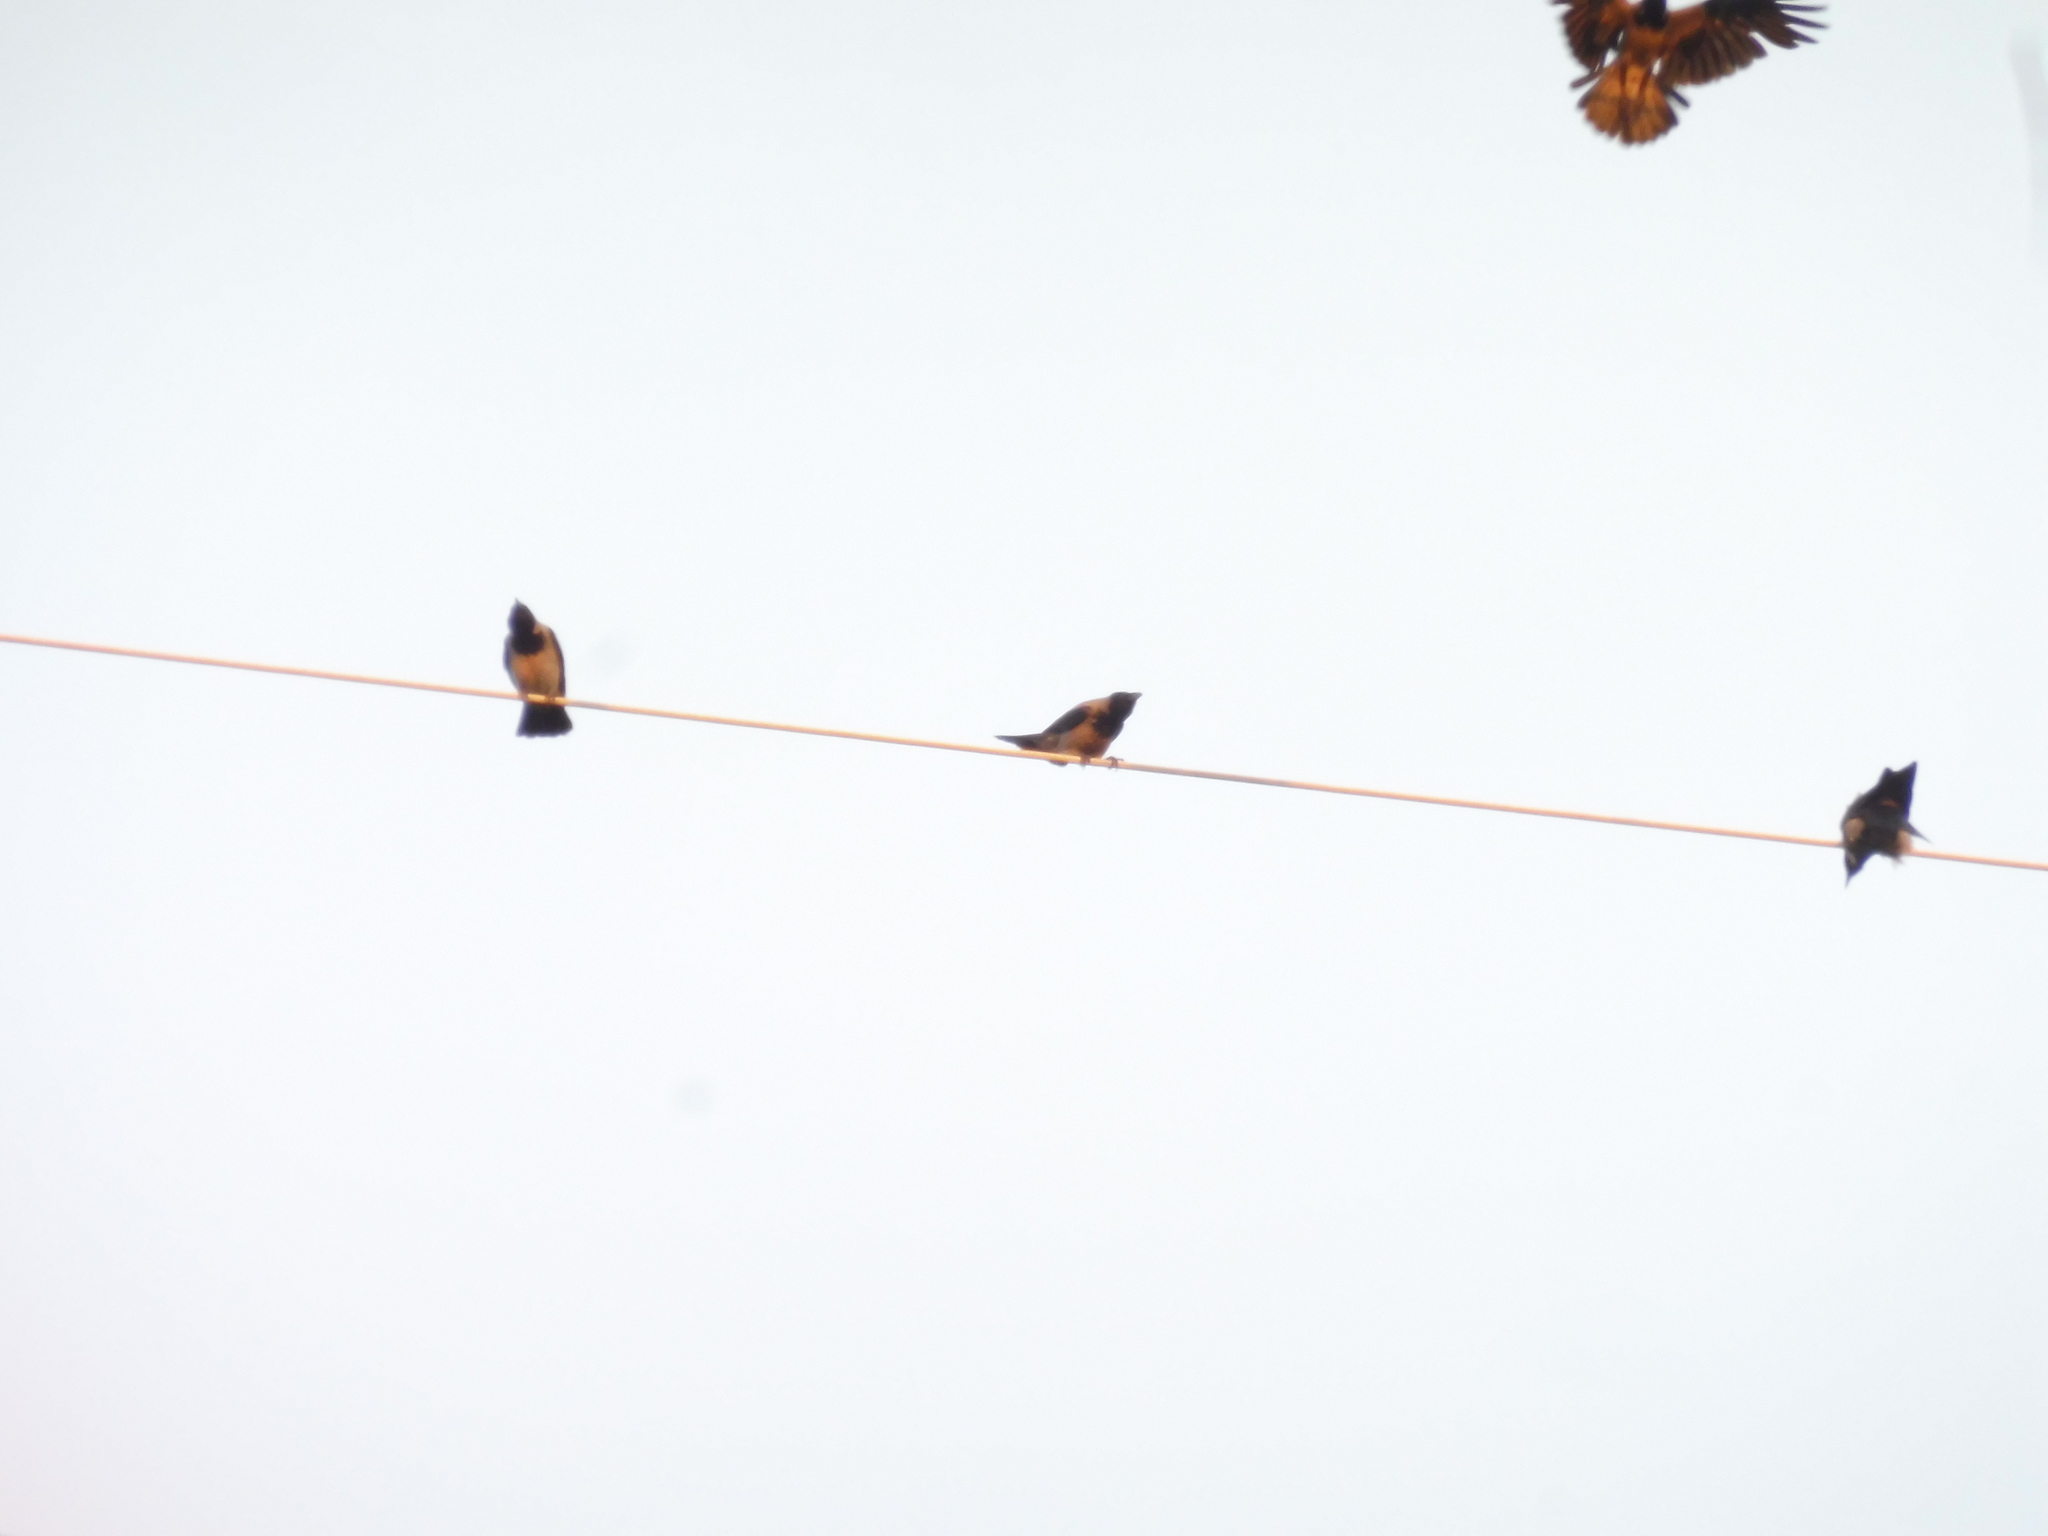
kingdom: Animalia
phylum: Chordata
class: Aves
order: Passeriformes
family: Corvidae
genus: Corvus
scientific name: Corvus cornix
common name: Hooded crow
